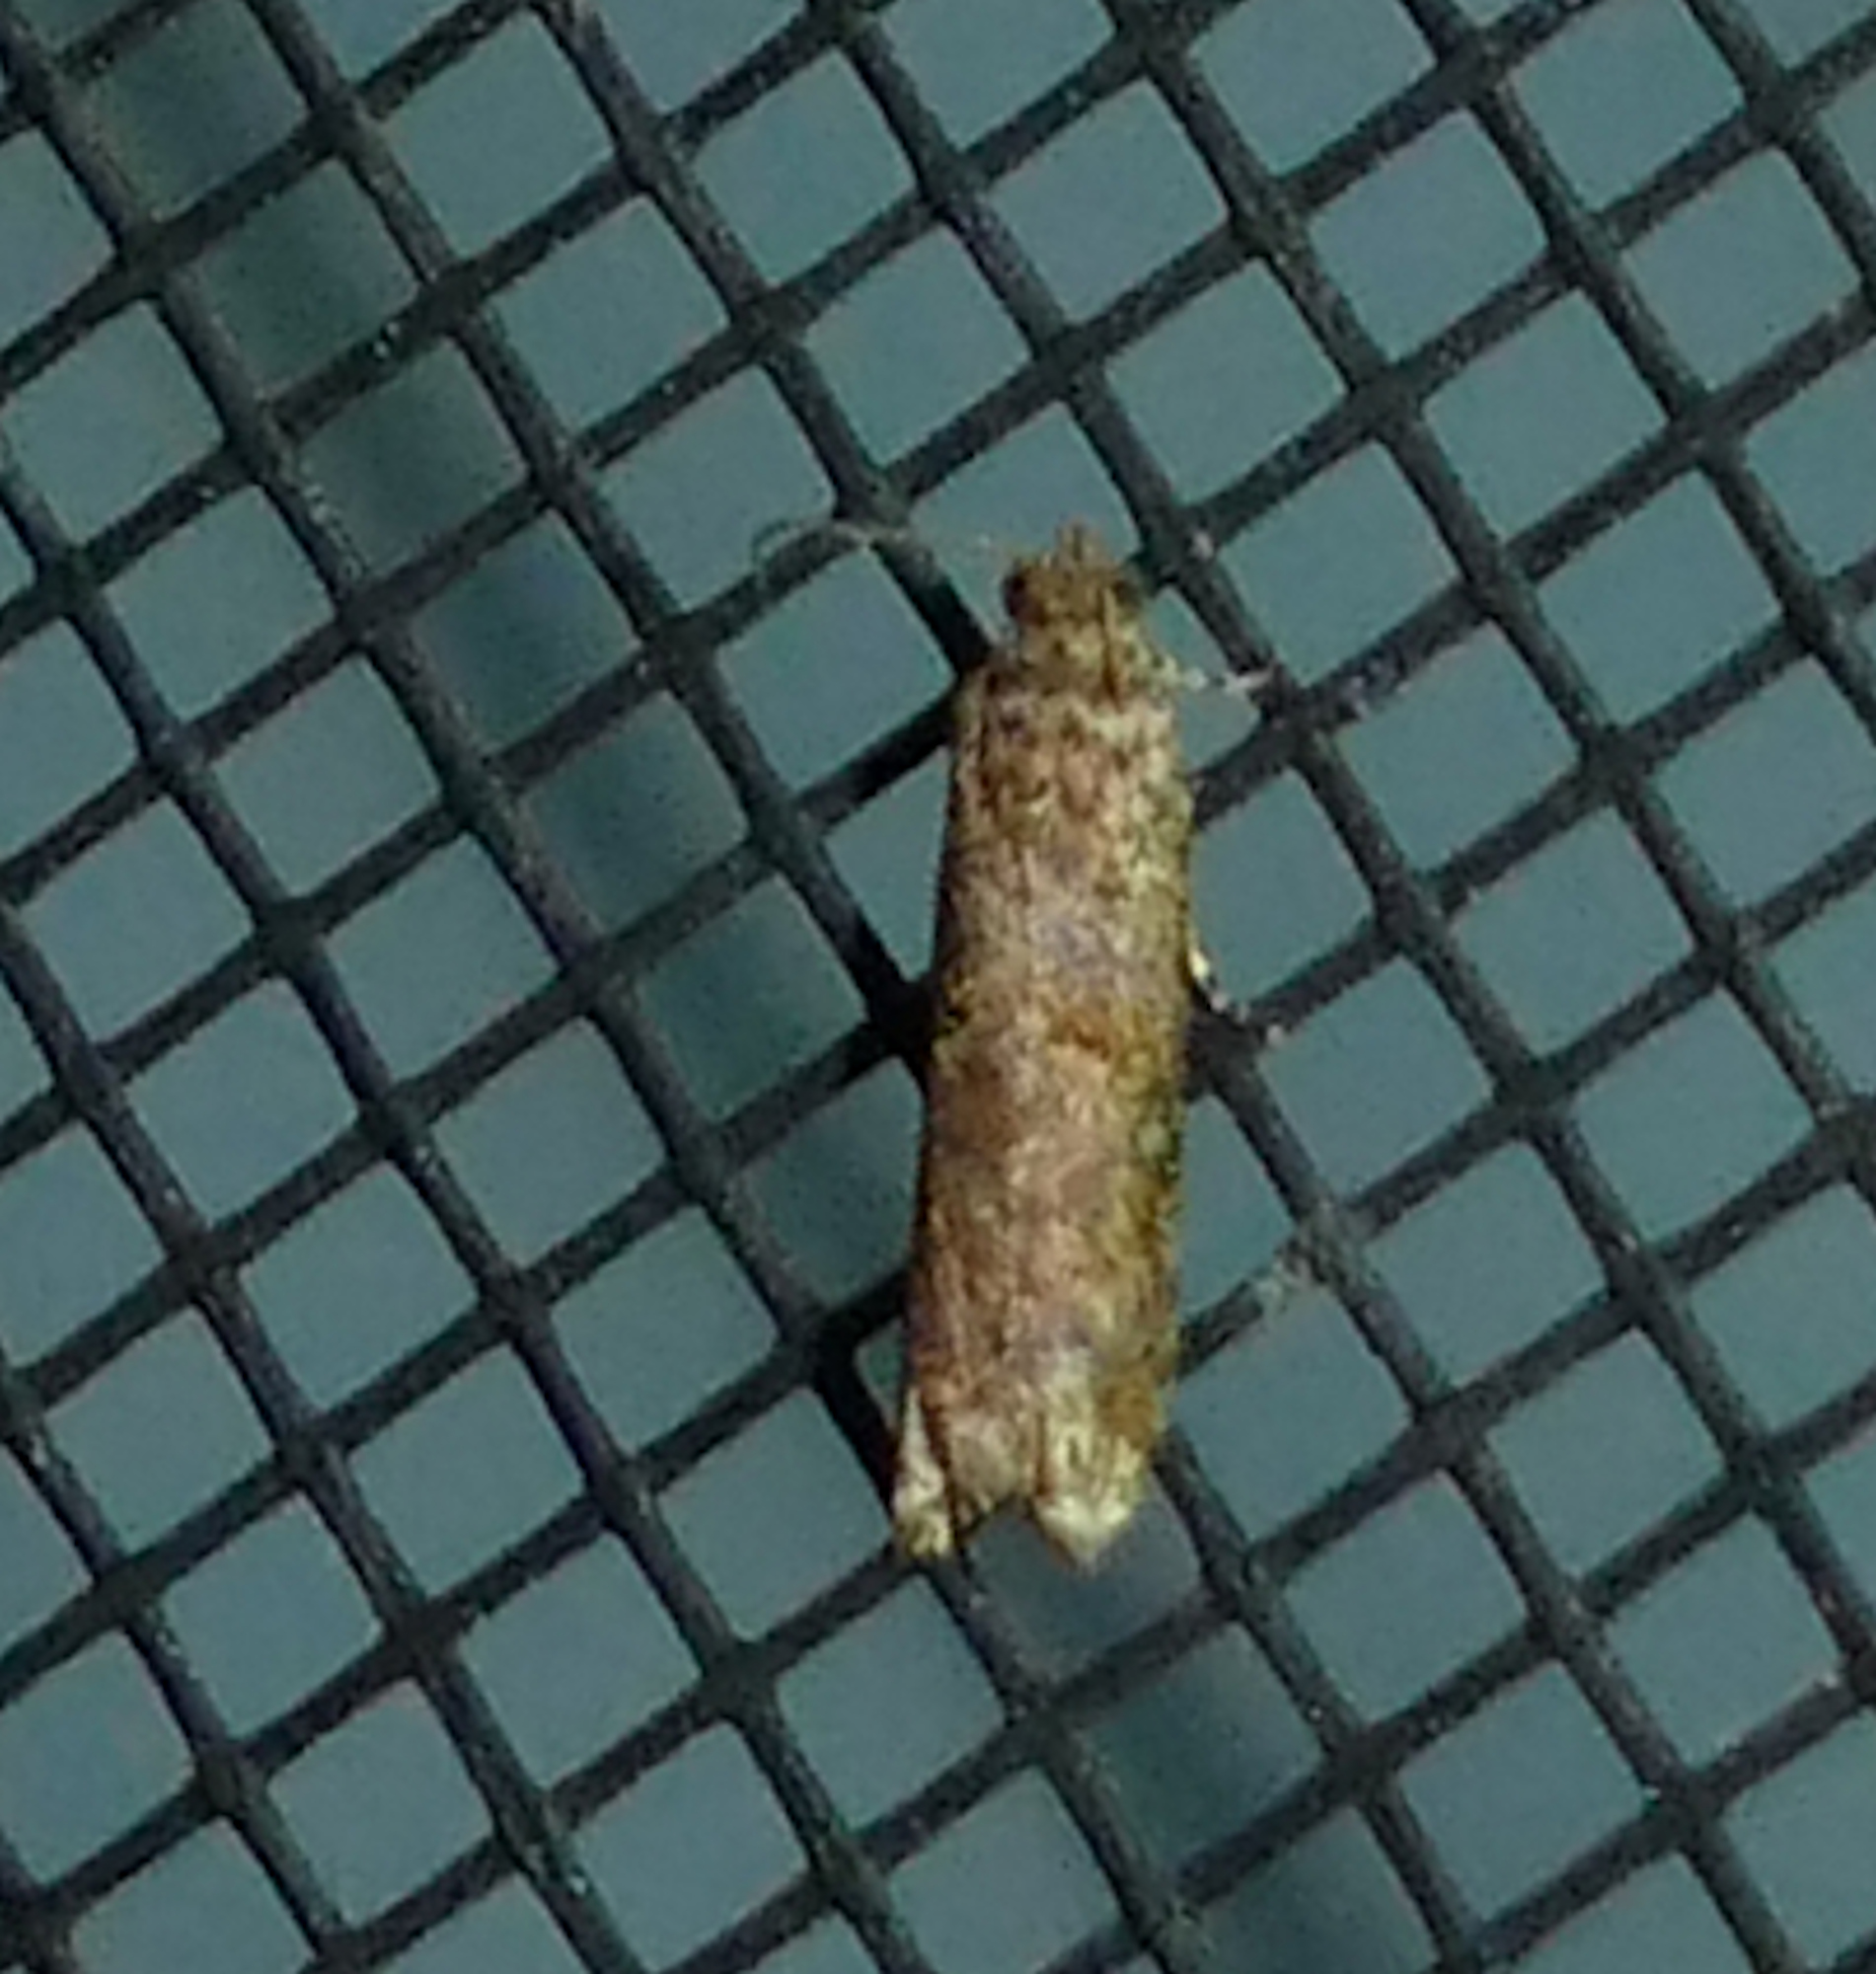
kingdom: Animalia
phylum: Arthropoda
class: Insecta
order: Lepidoptera
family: Tortricidae
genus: Episimus
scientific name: Episimus argutana
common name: Sumac leaftier moth
